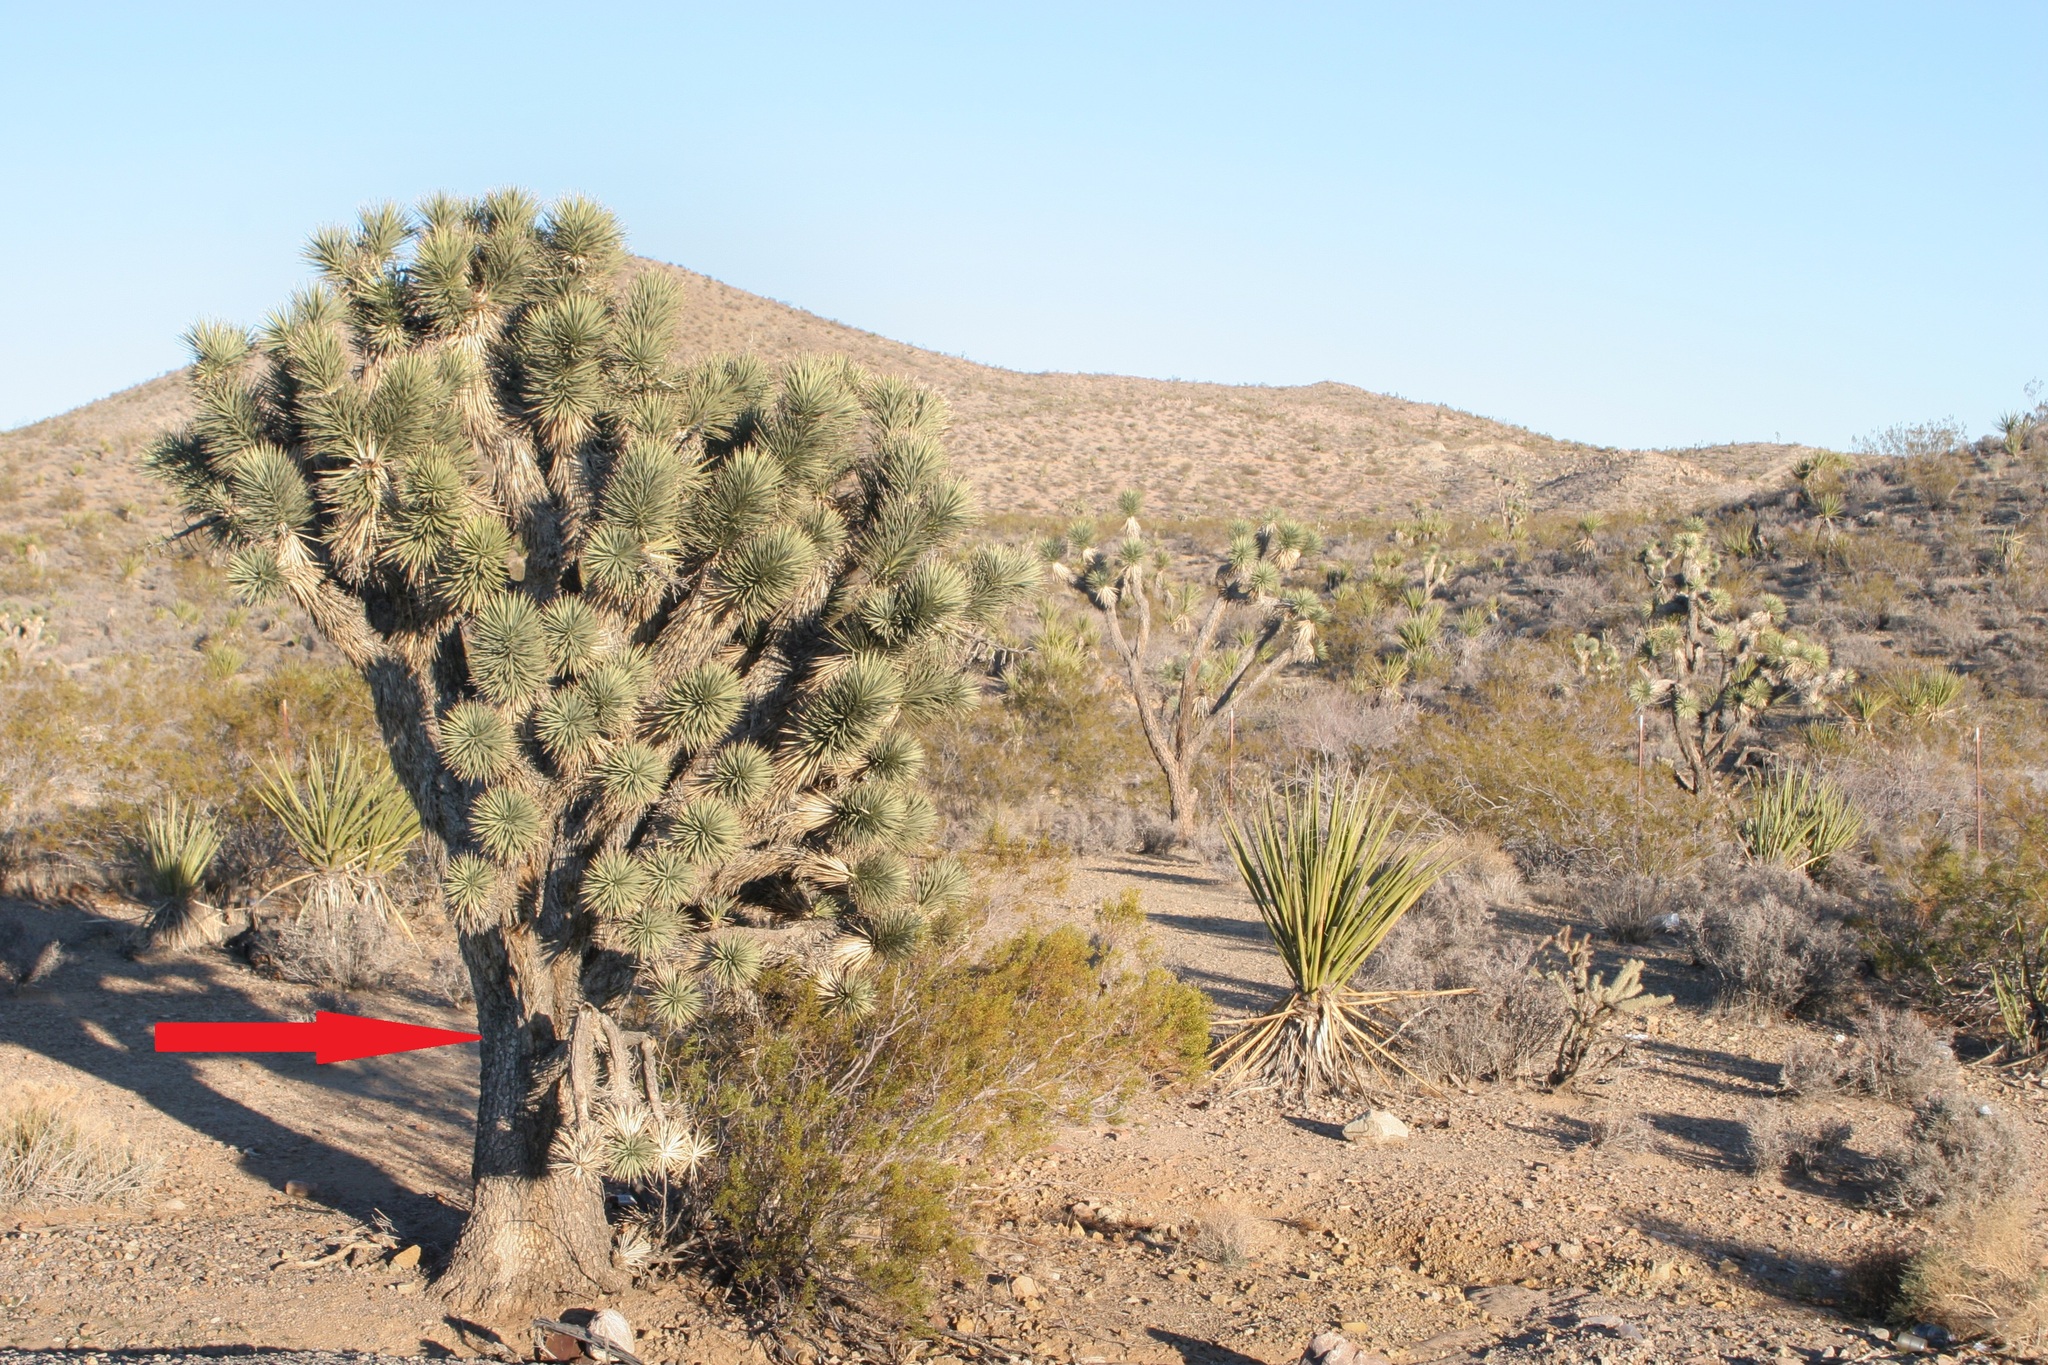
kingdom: Plantae
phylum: Tracheophyta
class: Liliopsida
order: Asparagales
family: Asparagaceae
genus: Yucca
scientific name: Yucca brevifolia
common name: Joshua tree
